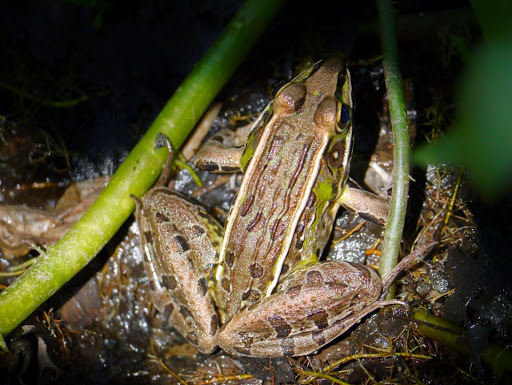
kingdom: Animalia
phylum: Chordata
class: Amphibia
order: Anura
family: Ranidae
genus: Lithobates
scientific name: Lithobates sphenocephalus
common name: Southern leopard frog
